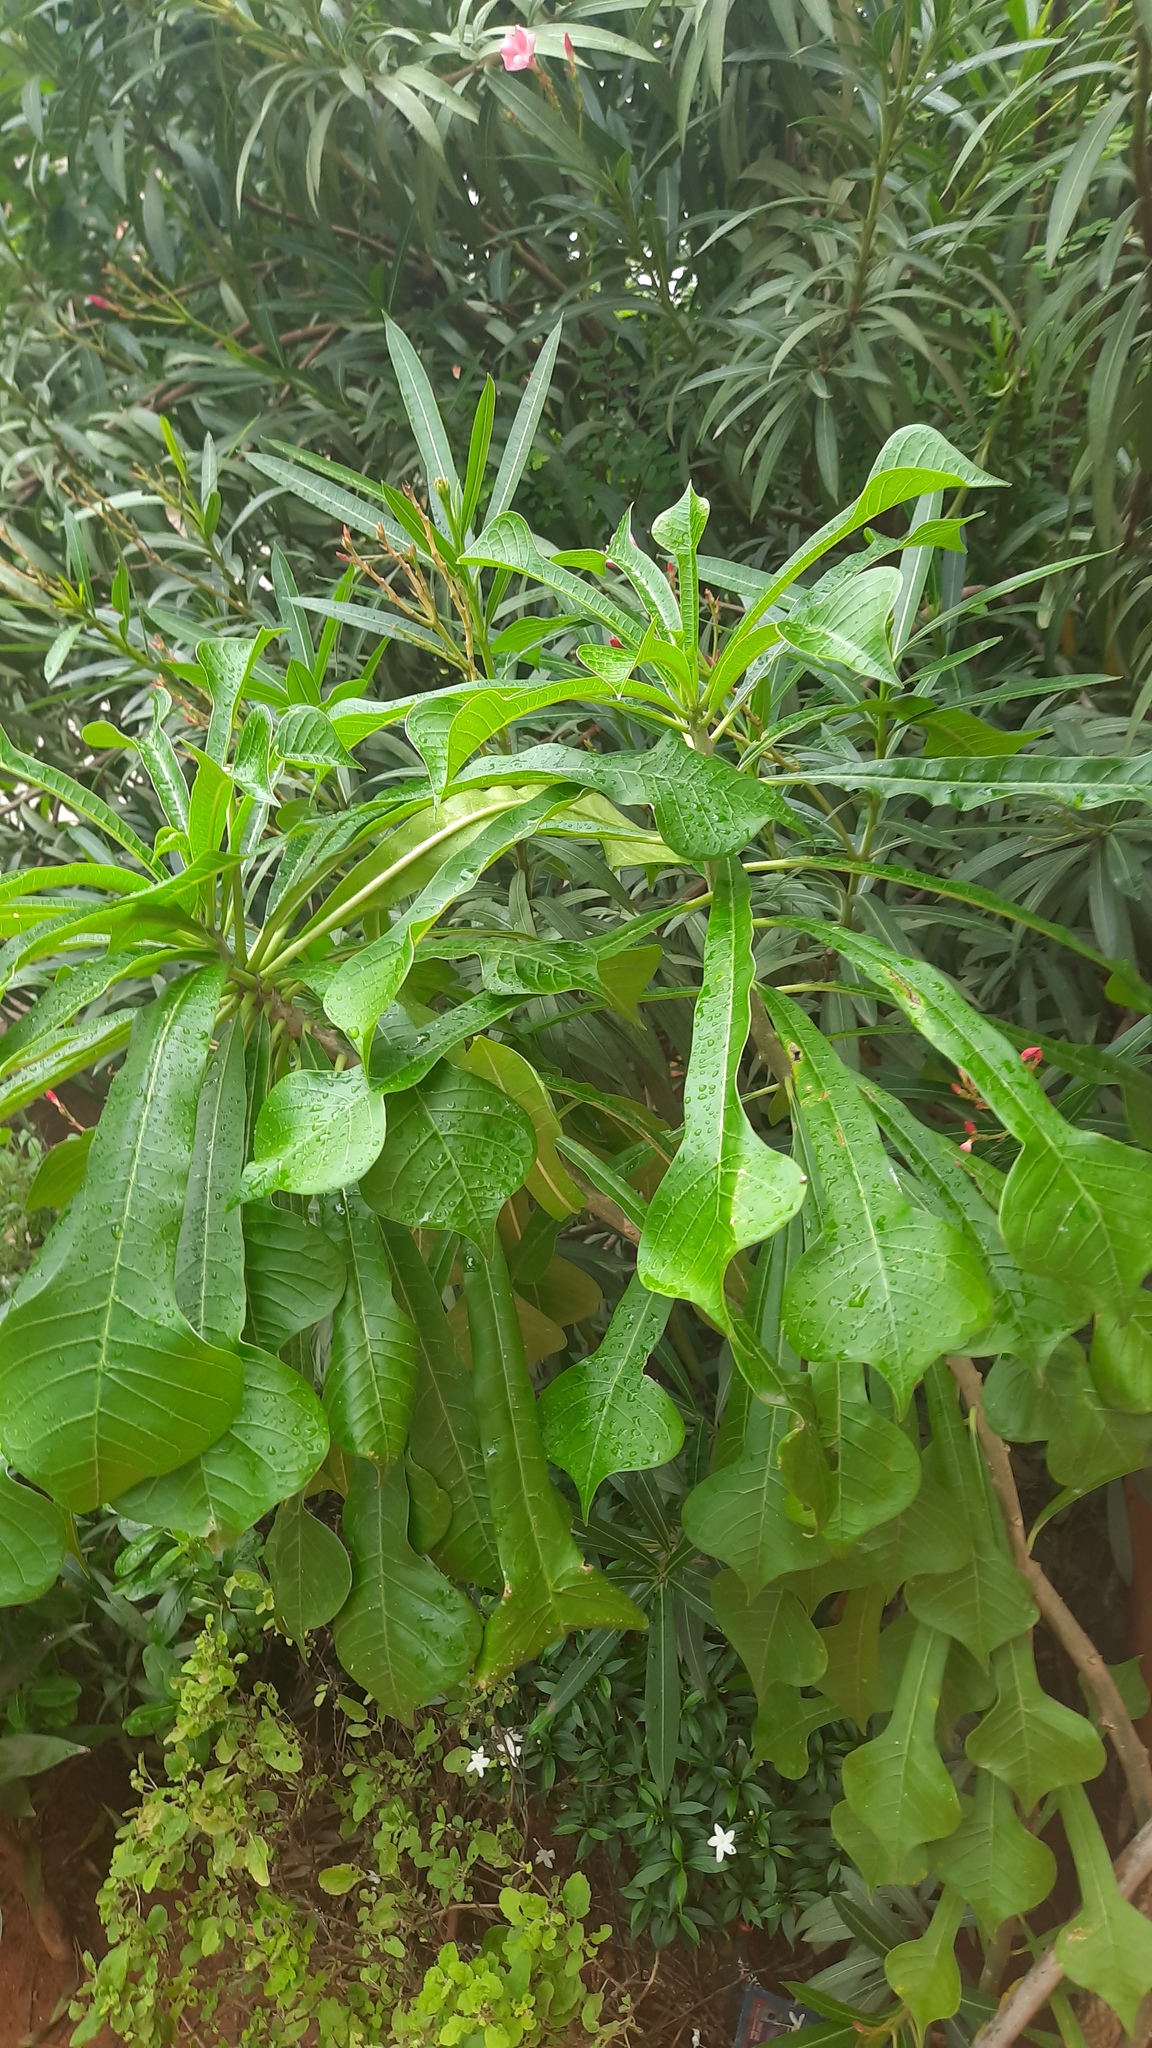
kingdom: Plantae
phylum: Tracheophyta
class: Magnoliopsida
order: Gentianales
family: Apocynaceae
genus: Plumeria
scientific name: Plumeria pudica
